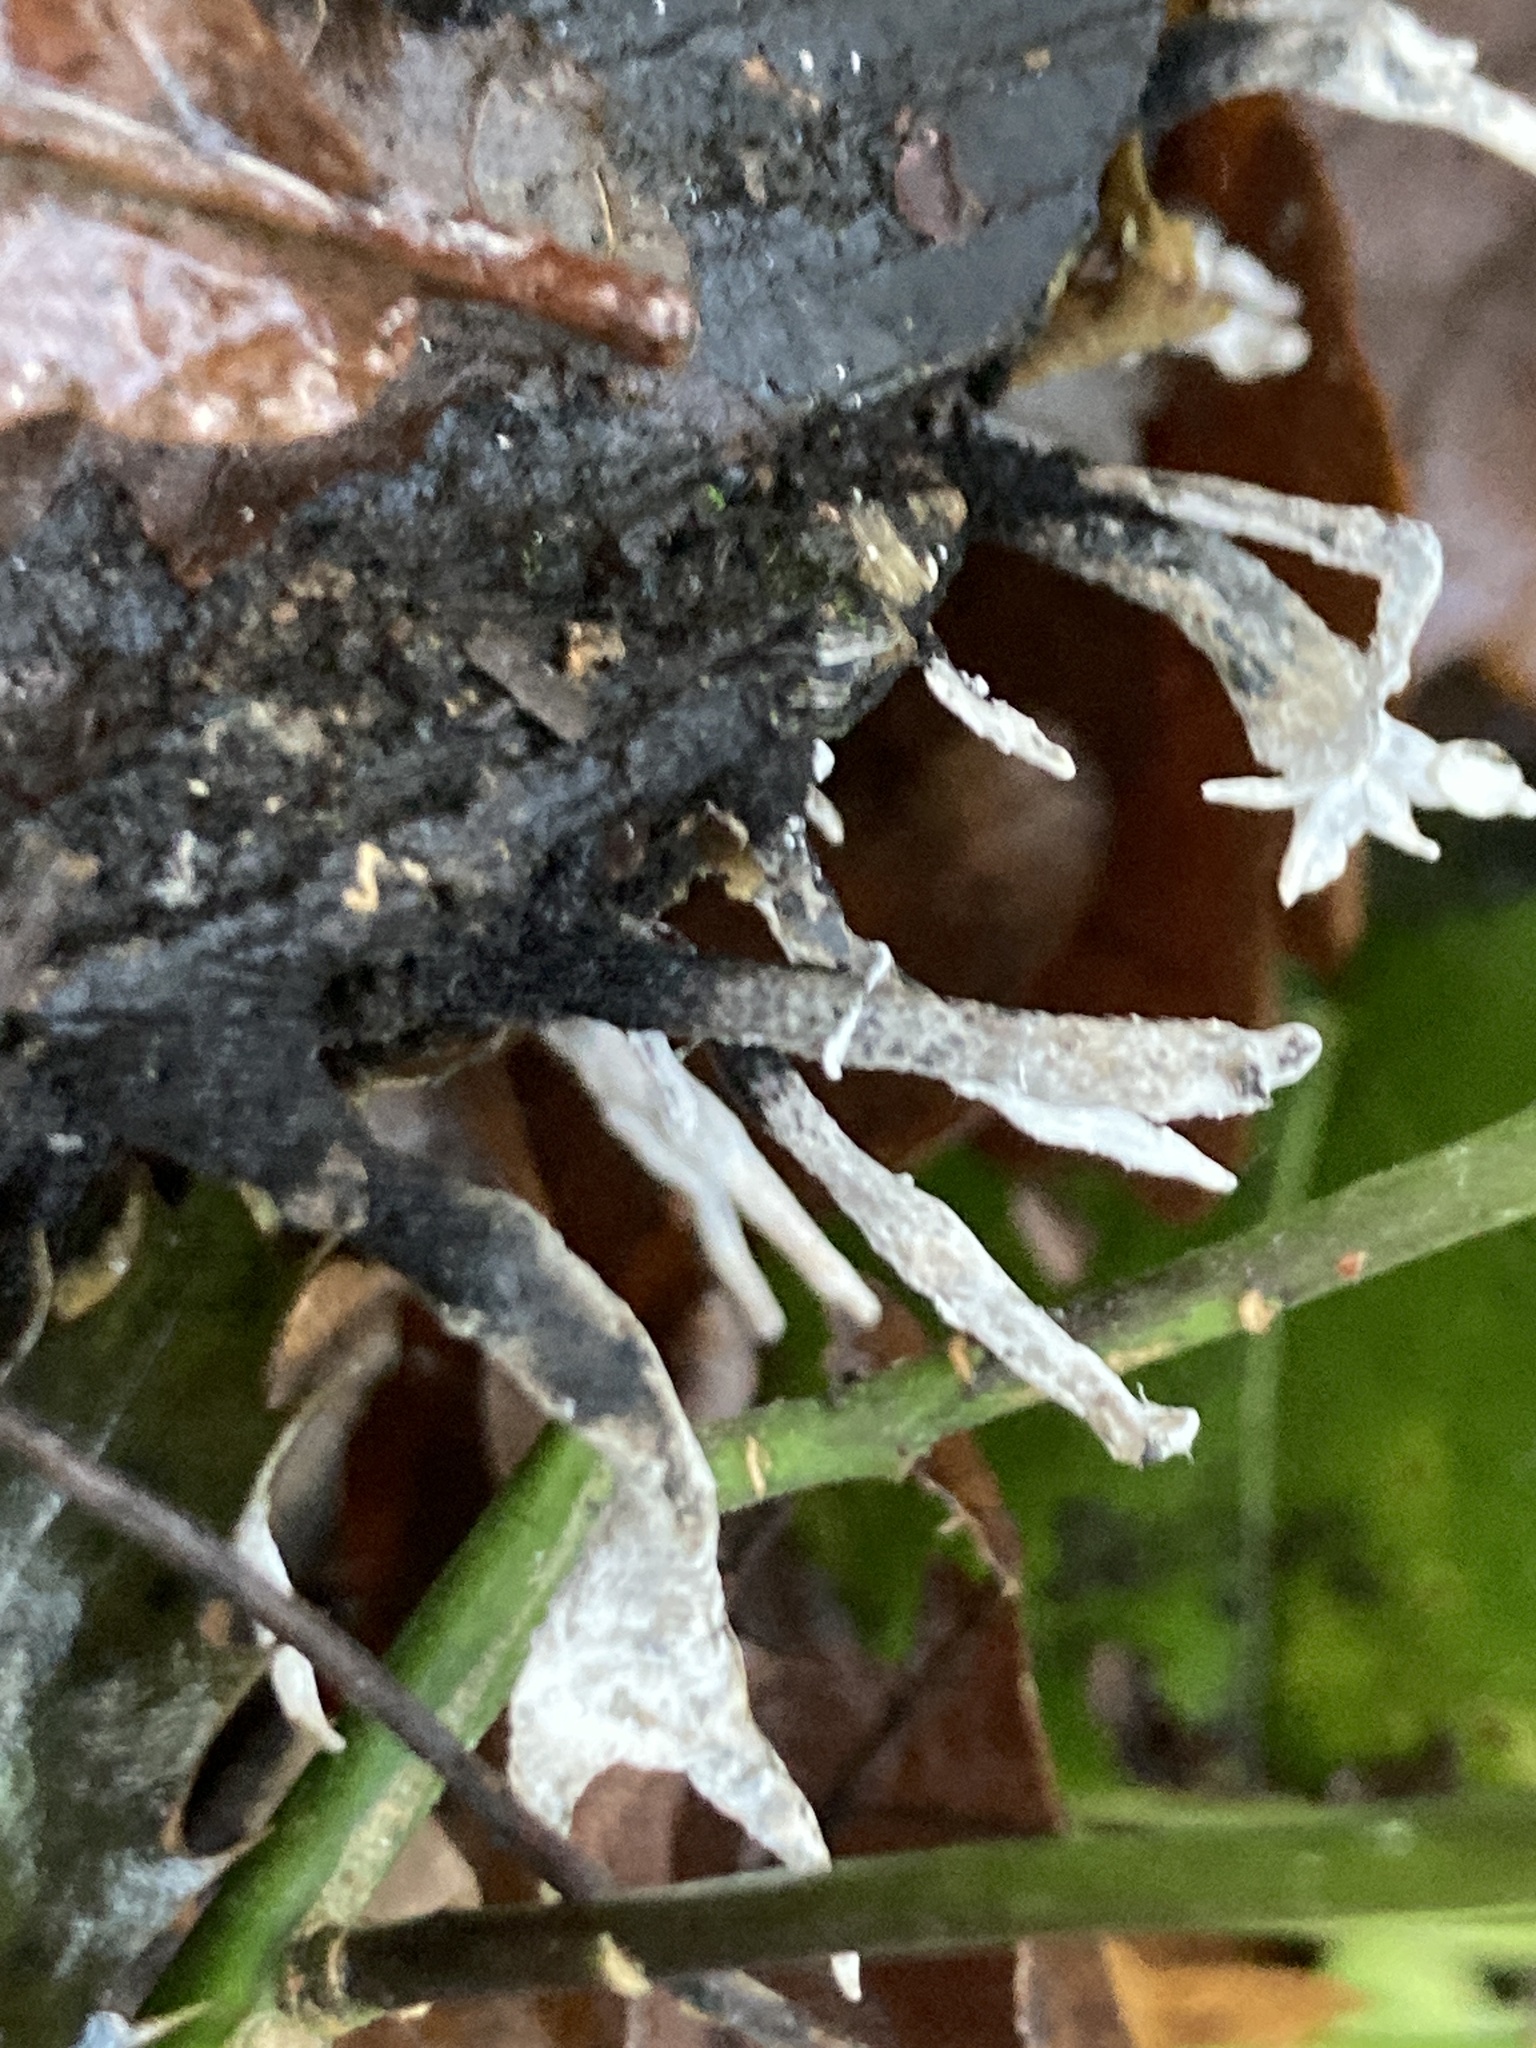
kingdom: Fungi
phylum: Ascomycota
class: Sordariomycetes
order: Xylariales
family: Xylariaceae
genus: Xylaria
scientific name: Xylaria hypoxylon
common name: Candle-snuff fungus
